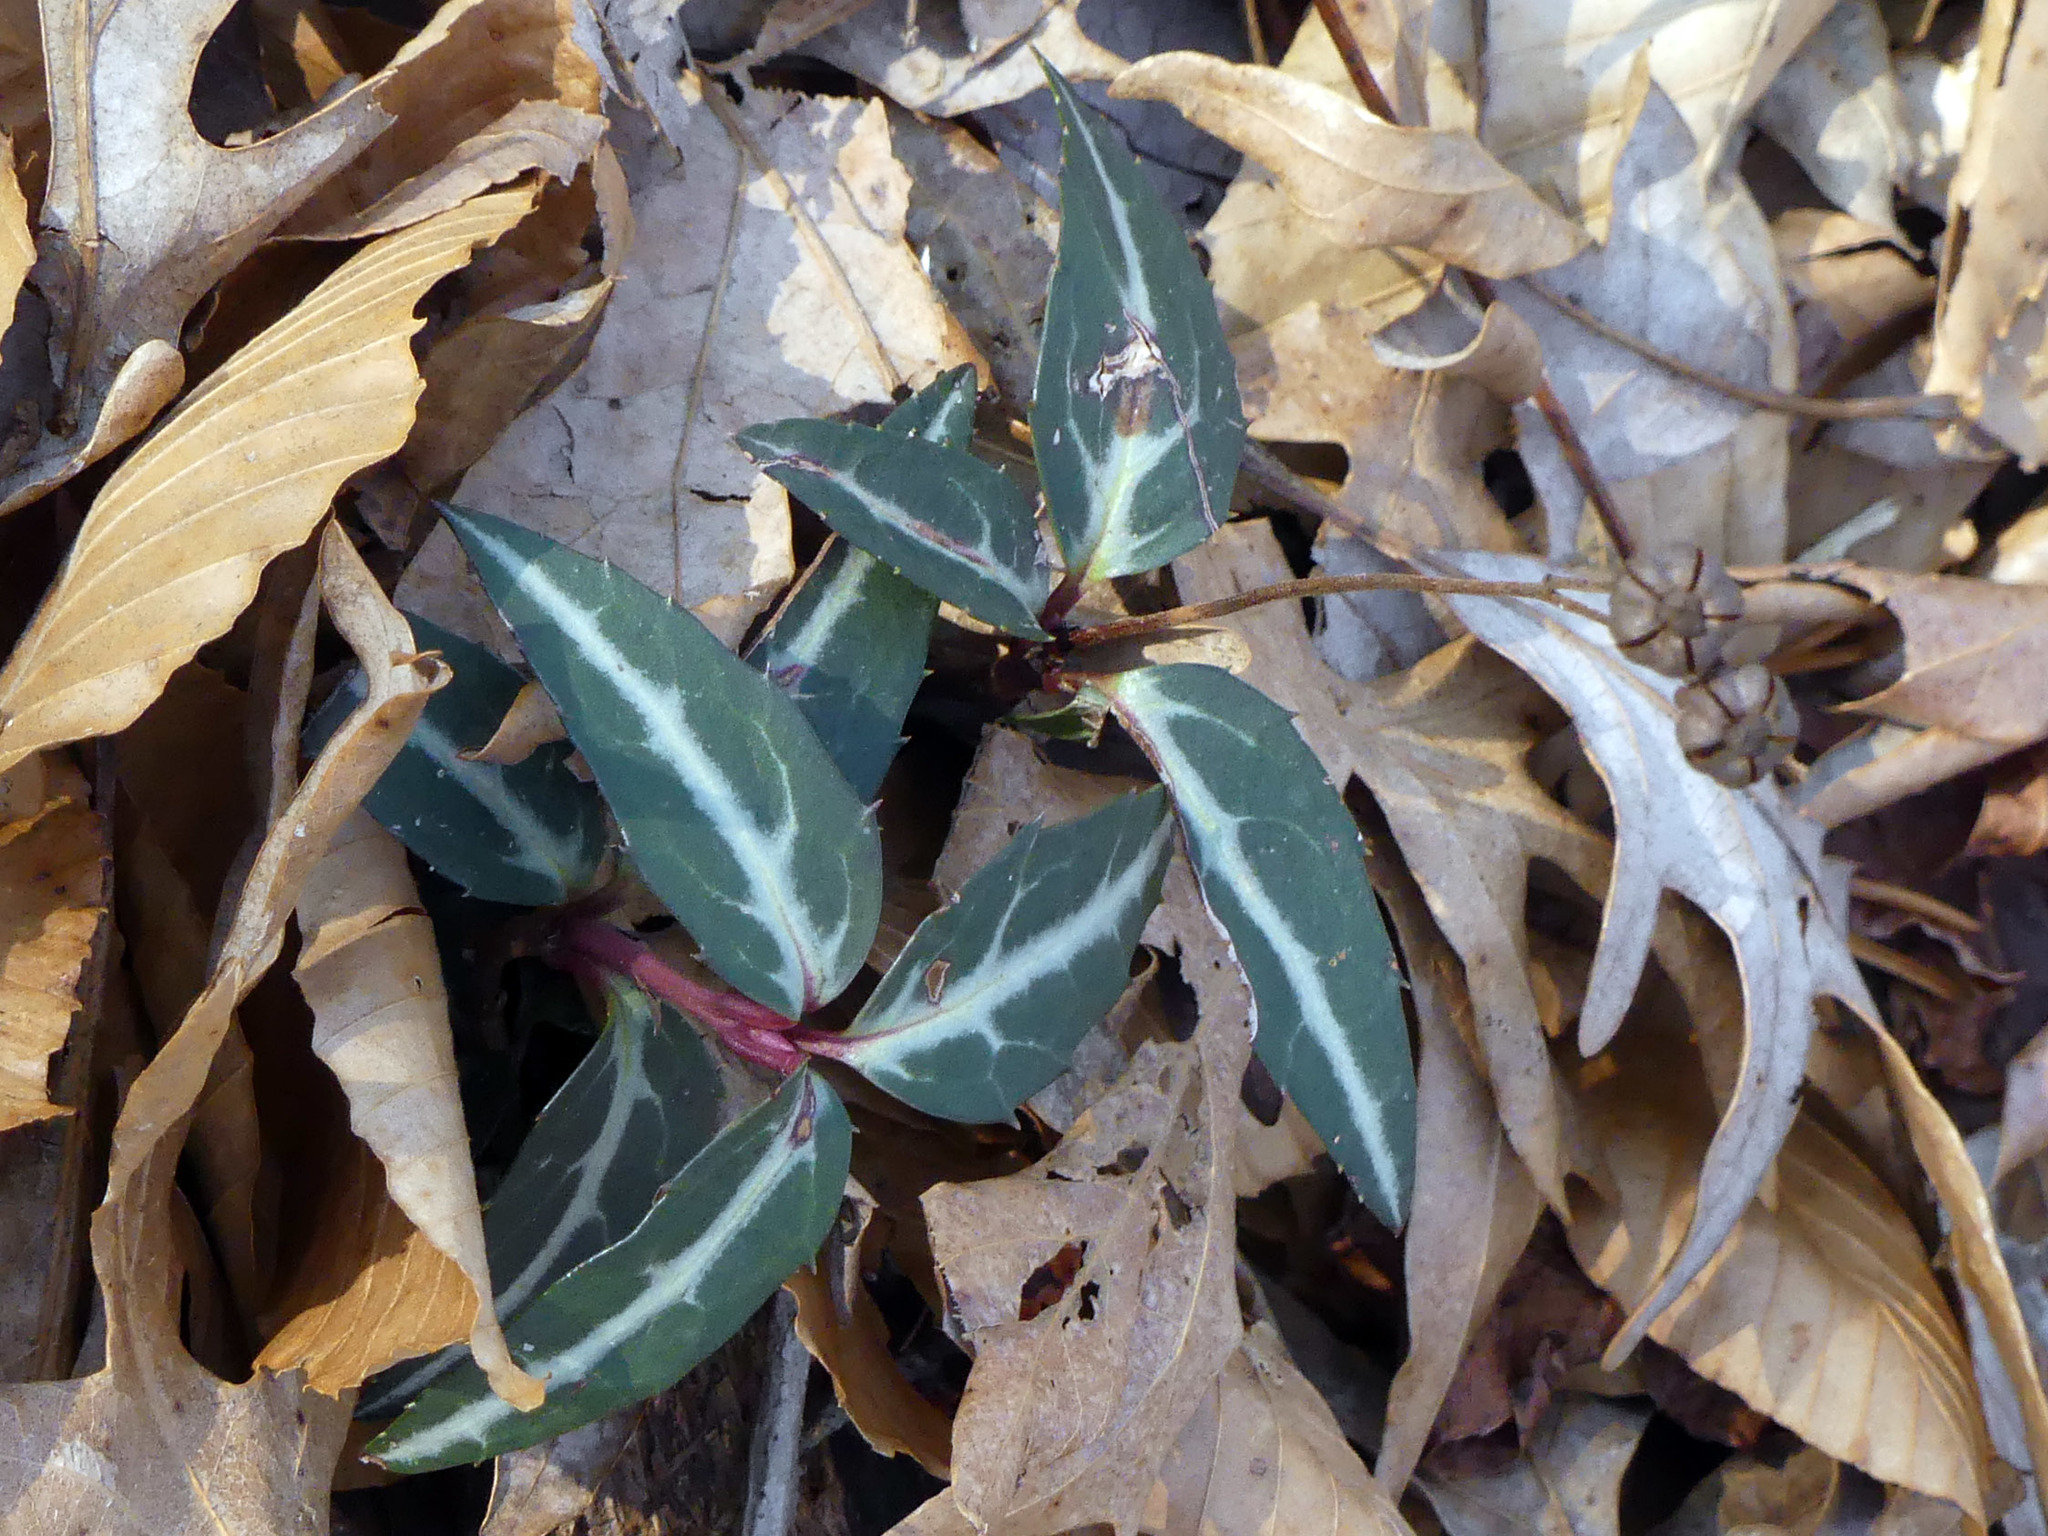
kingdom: Plantae
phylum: Tracheophyta
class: Magnoliopsida
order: Ericales
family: Ericaceae
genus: Chimaphila
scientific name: Chimaphila maculata
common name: Spotted pipsissewa
